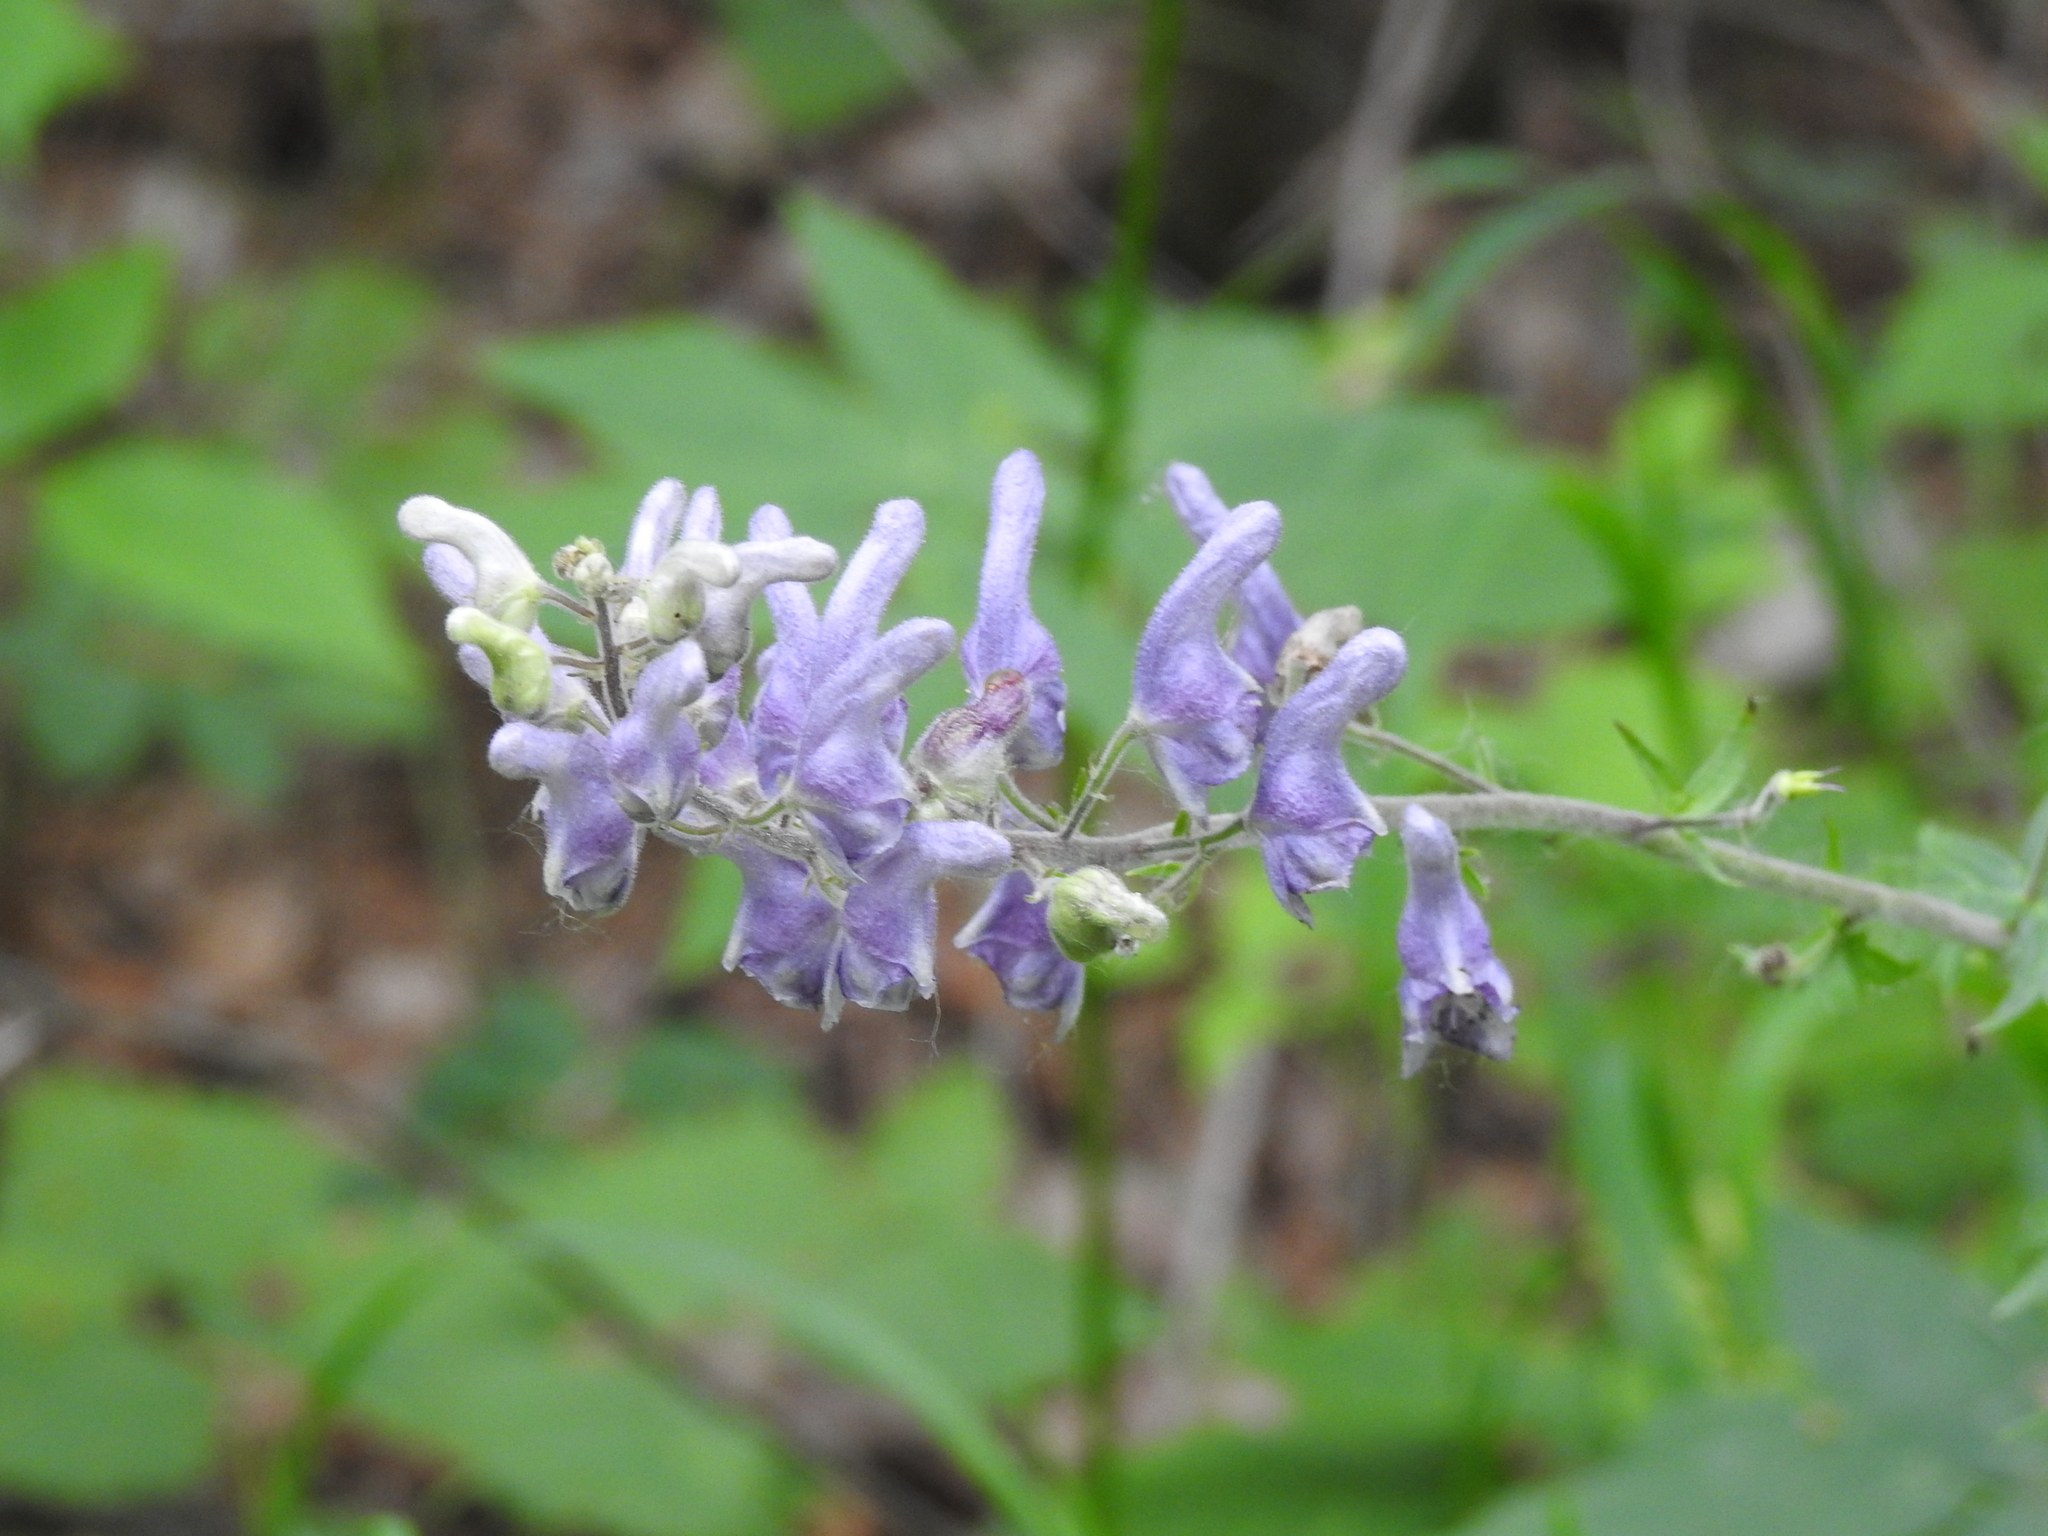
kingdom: Plantae
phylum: Tracheophyta
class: Magnoliopsida
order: Ranunculales
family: Ranunculaceae
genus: Aconitum
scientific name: Aconitum septentrionale
